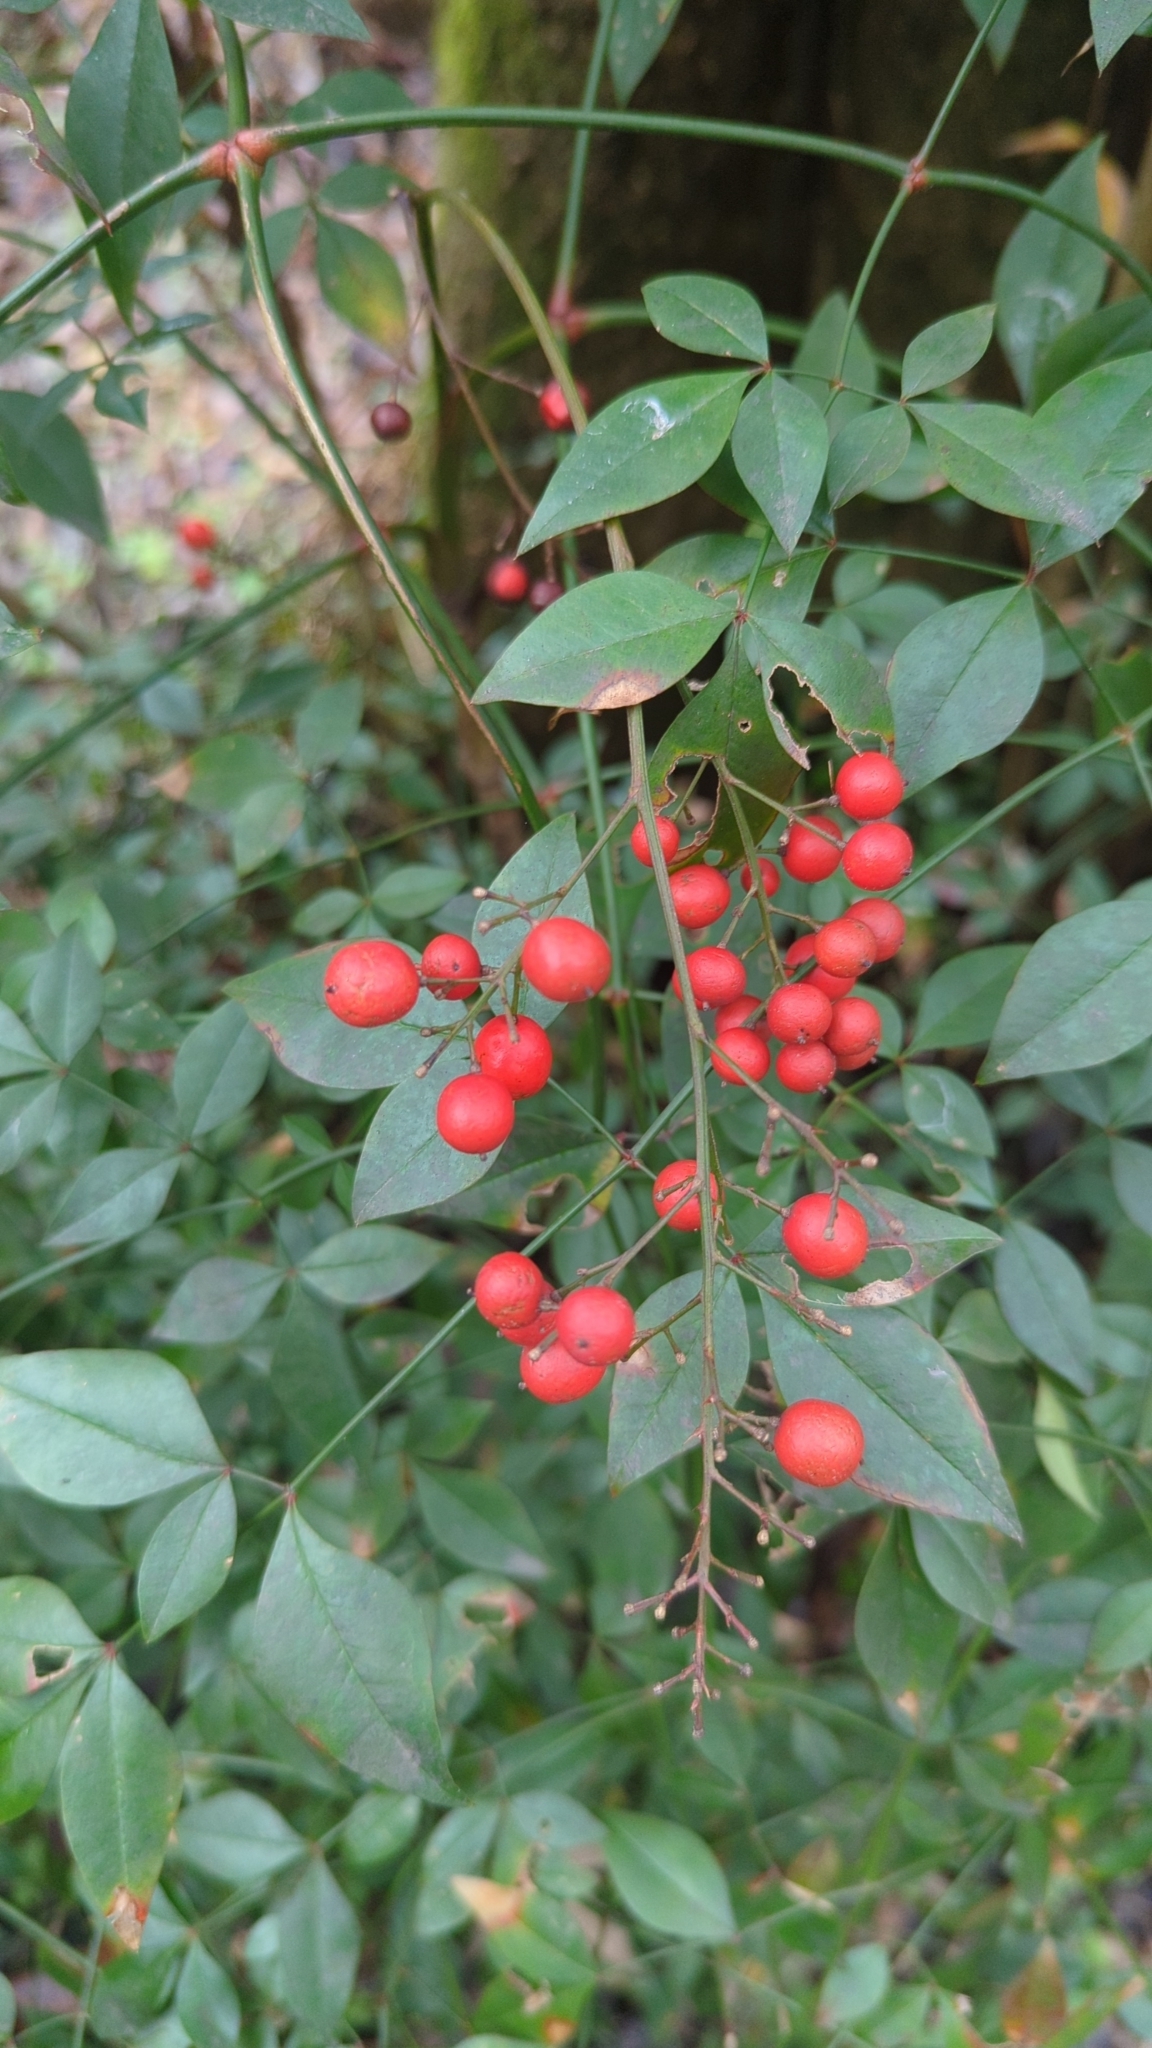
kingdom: Plantae
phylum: Tracheophyta
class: Magnoliopsida
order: Ranunculales
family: Berberidaceae
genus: Nandina
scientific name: Nandina domestica
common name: Sacred bamboo
